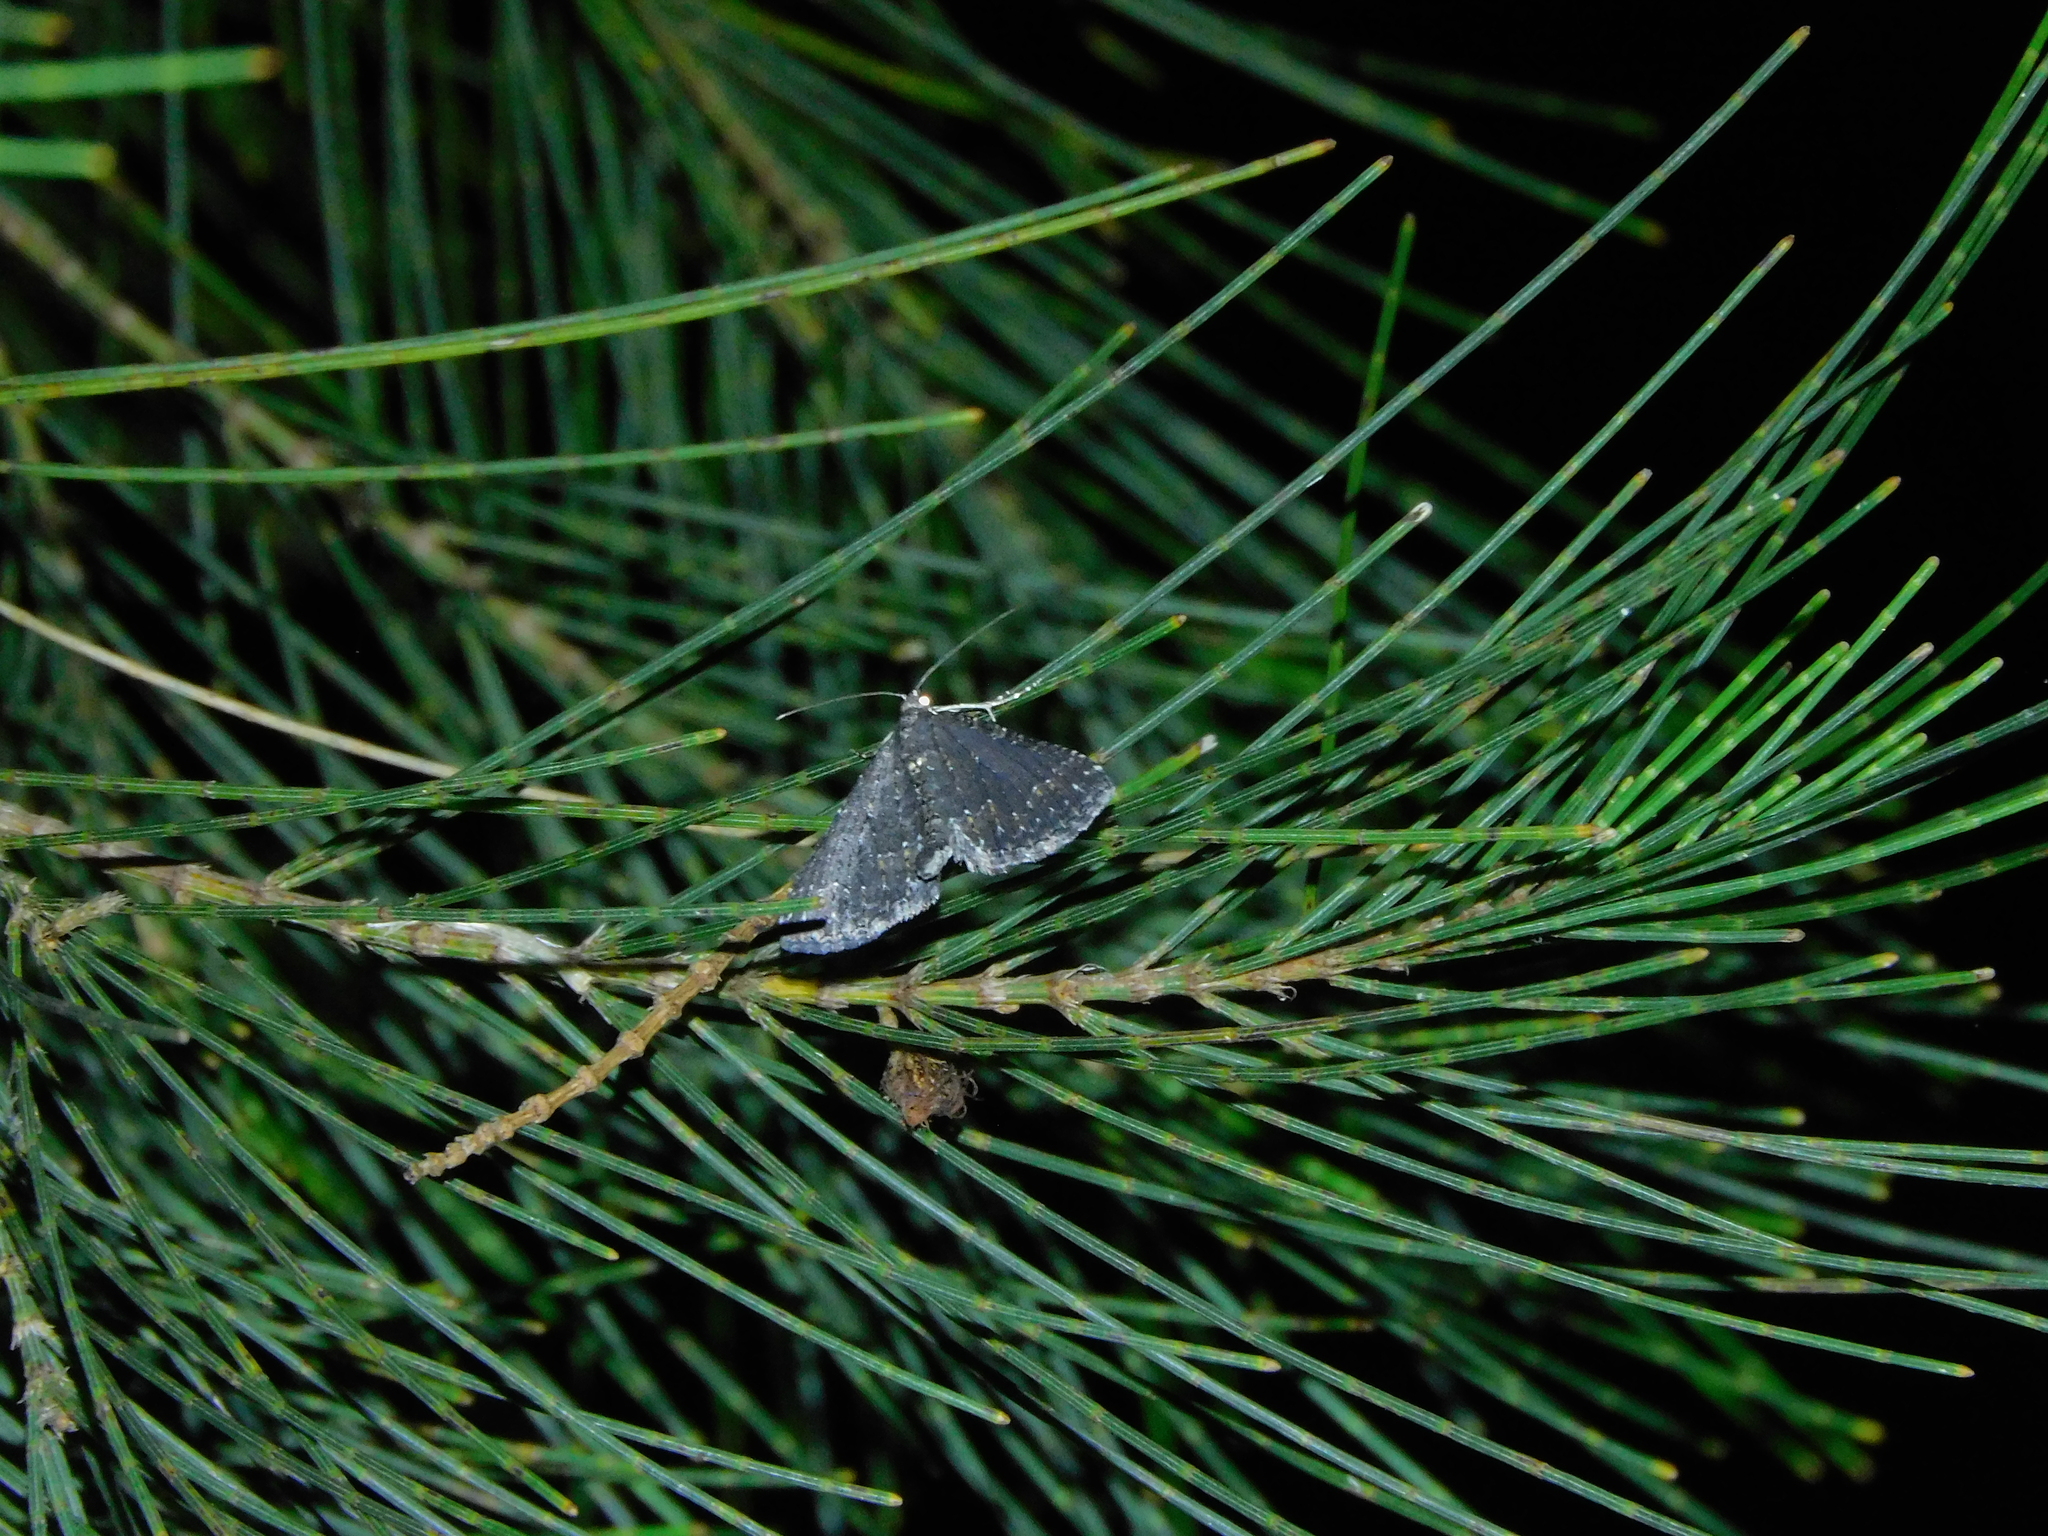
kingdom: Animalia
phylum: Arthropoda
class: Insecta
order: Lepidoptera
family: Geometridae
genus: Xanthorhoe
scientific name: Xanthorhoe xerodes
